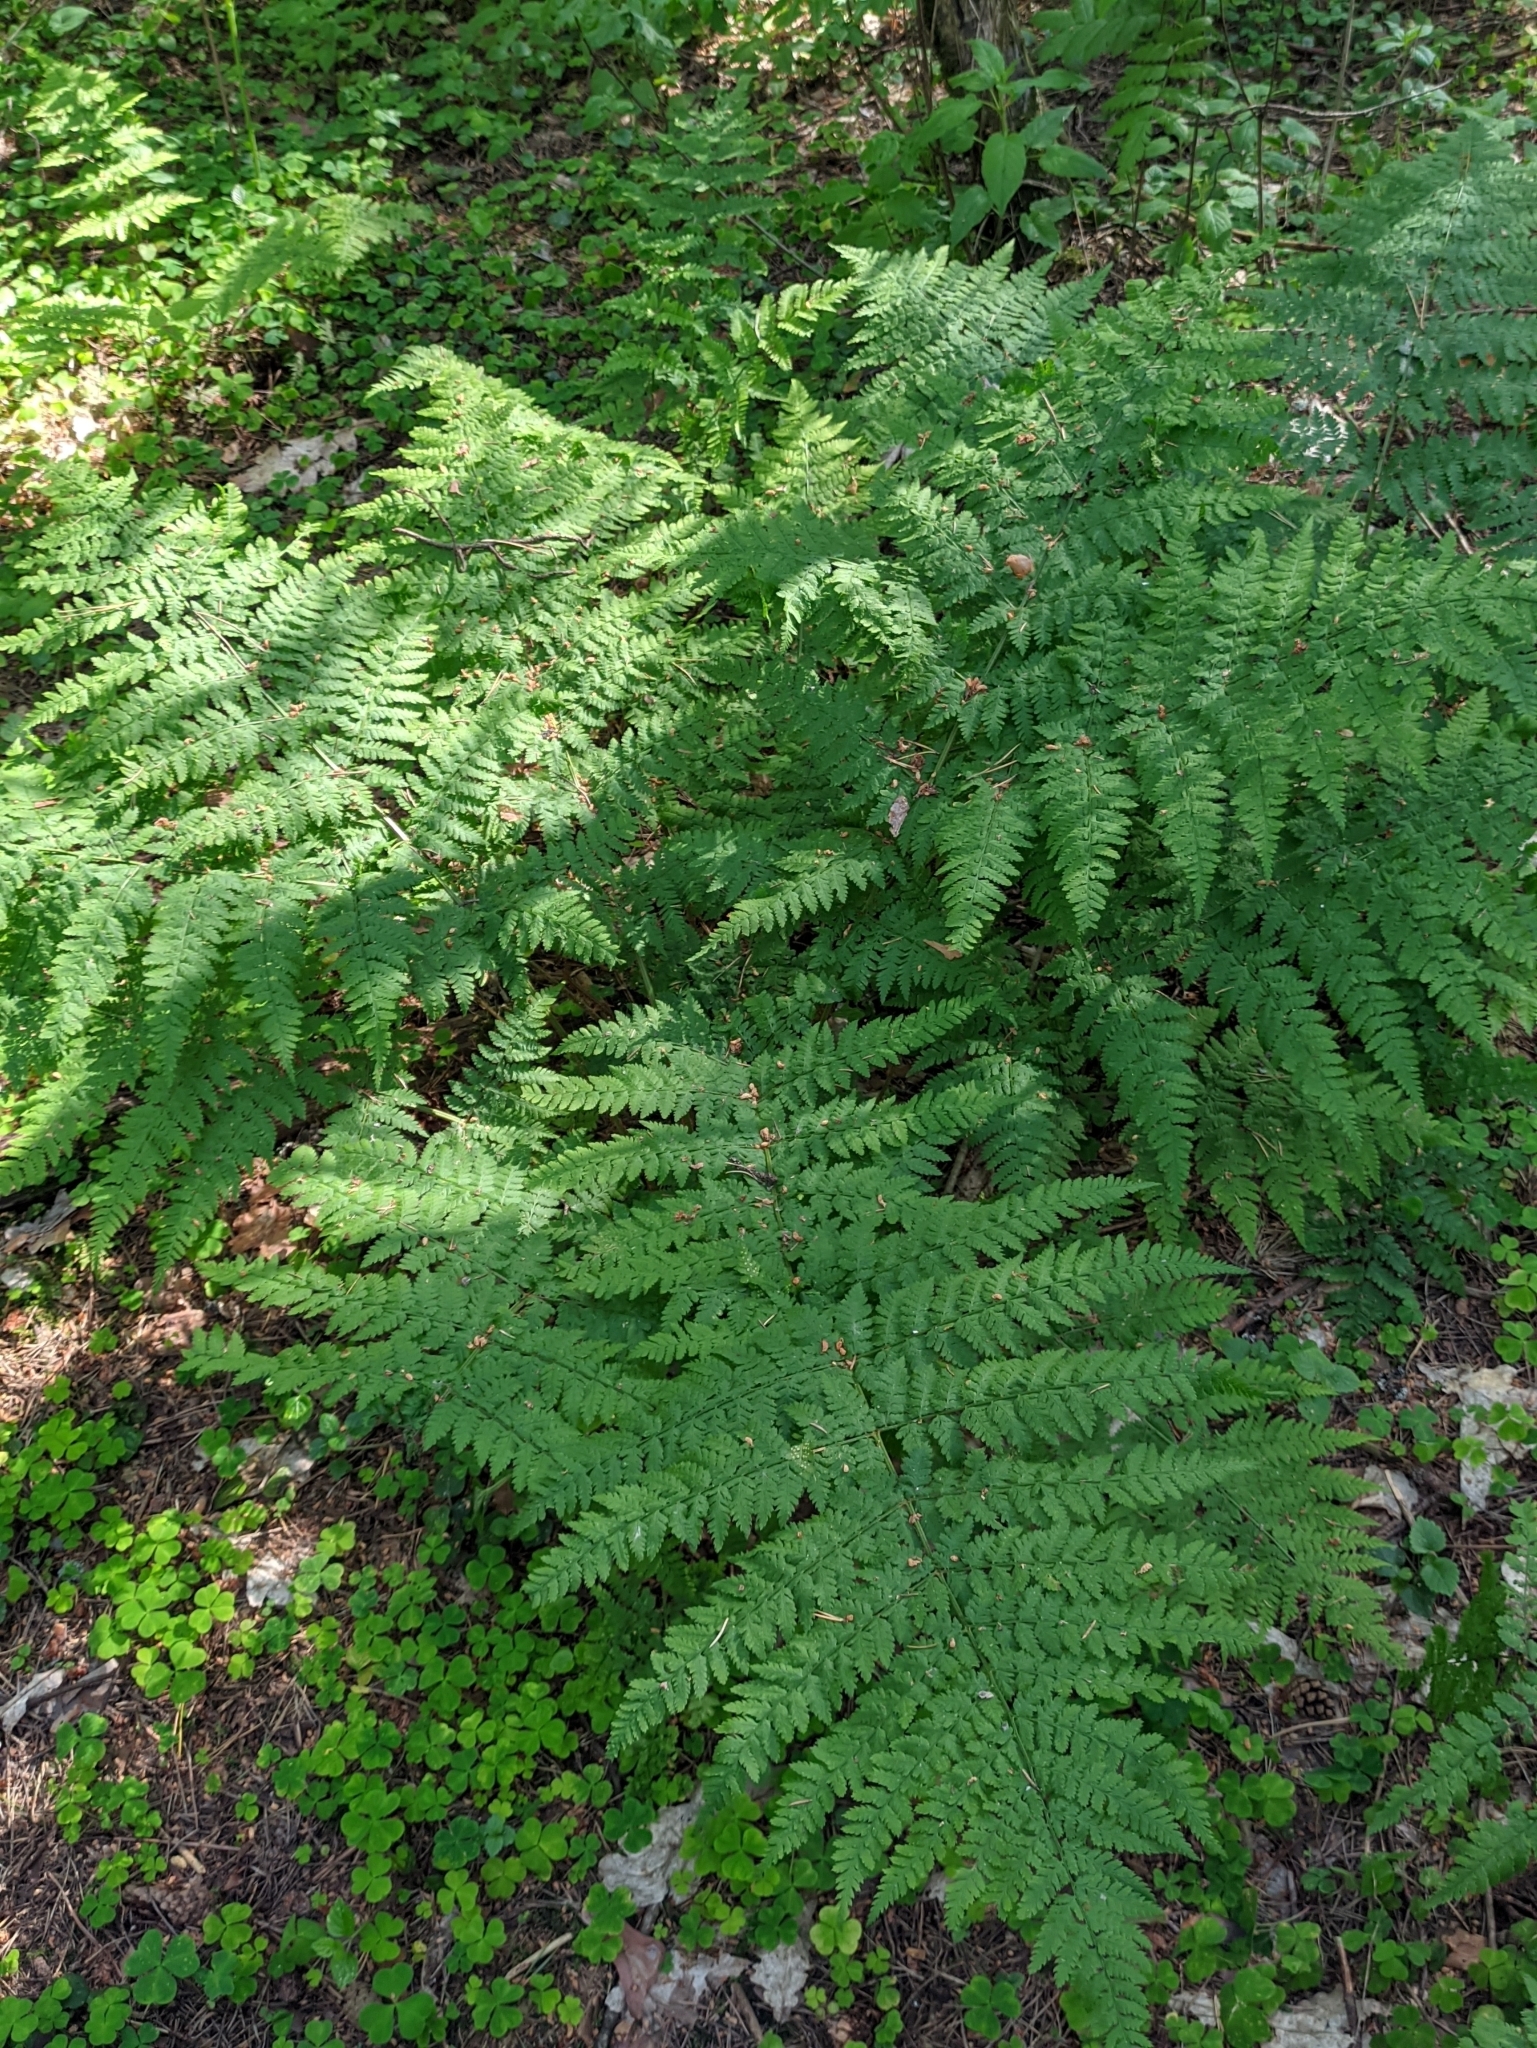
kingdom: Plantae
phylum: Tracheophyta
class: Polypodiopsida
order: Polypodiales
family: Dryopteridaceae
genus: Dryopteris
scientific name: Dryopteris expansa
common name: Northern buckler fern
